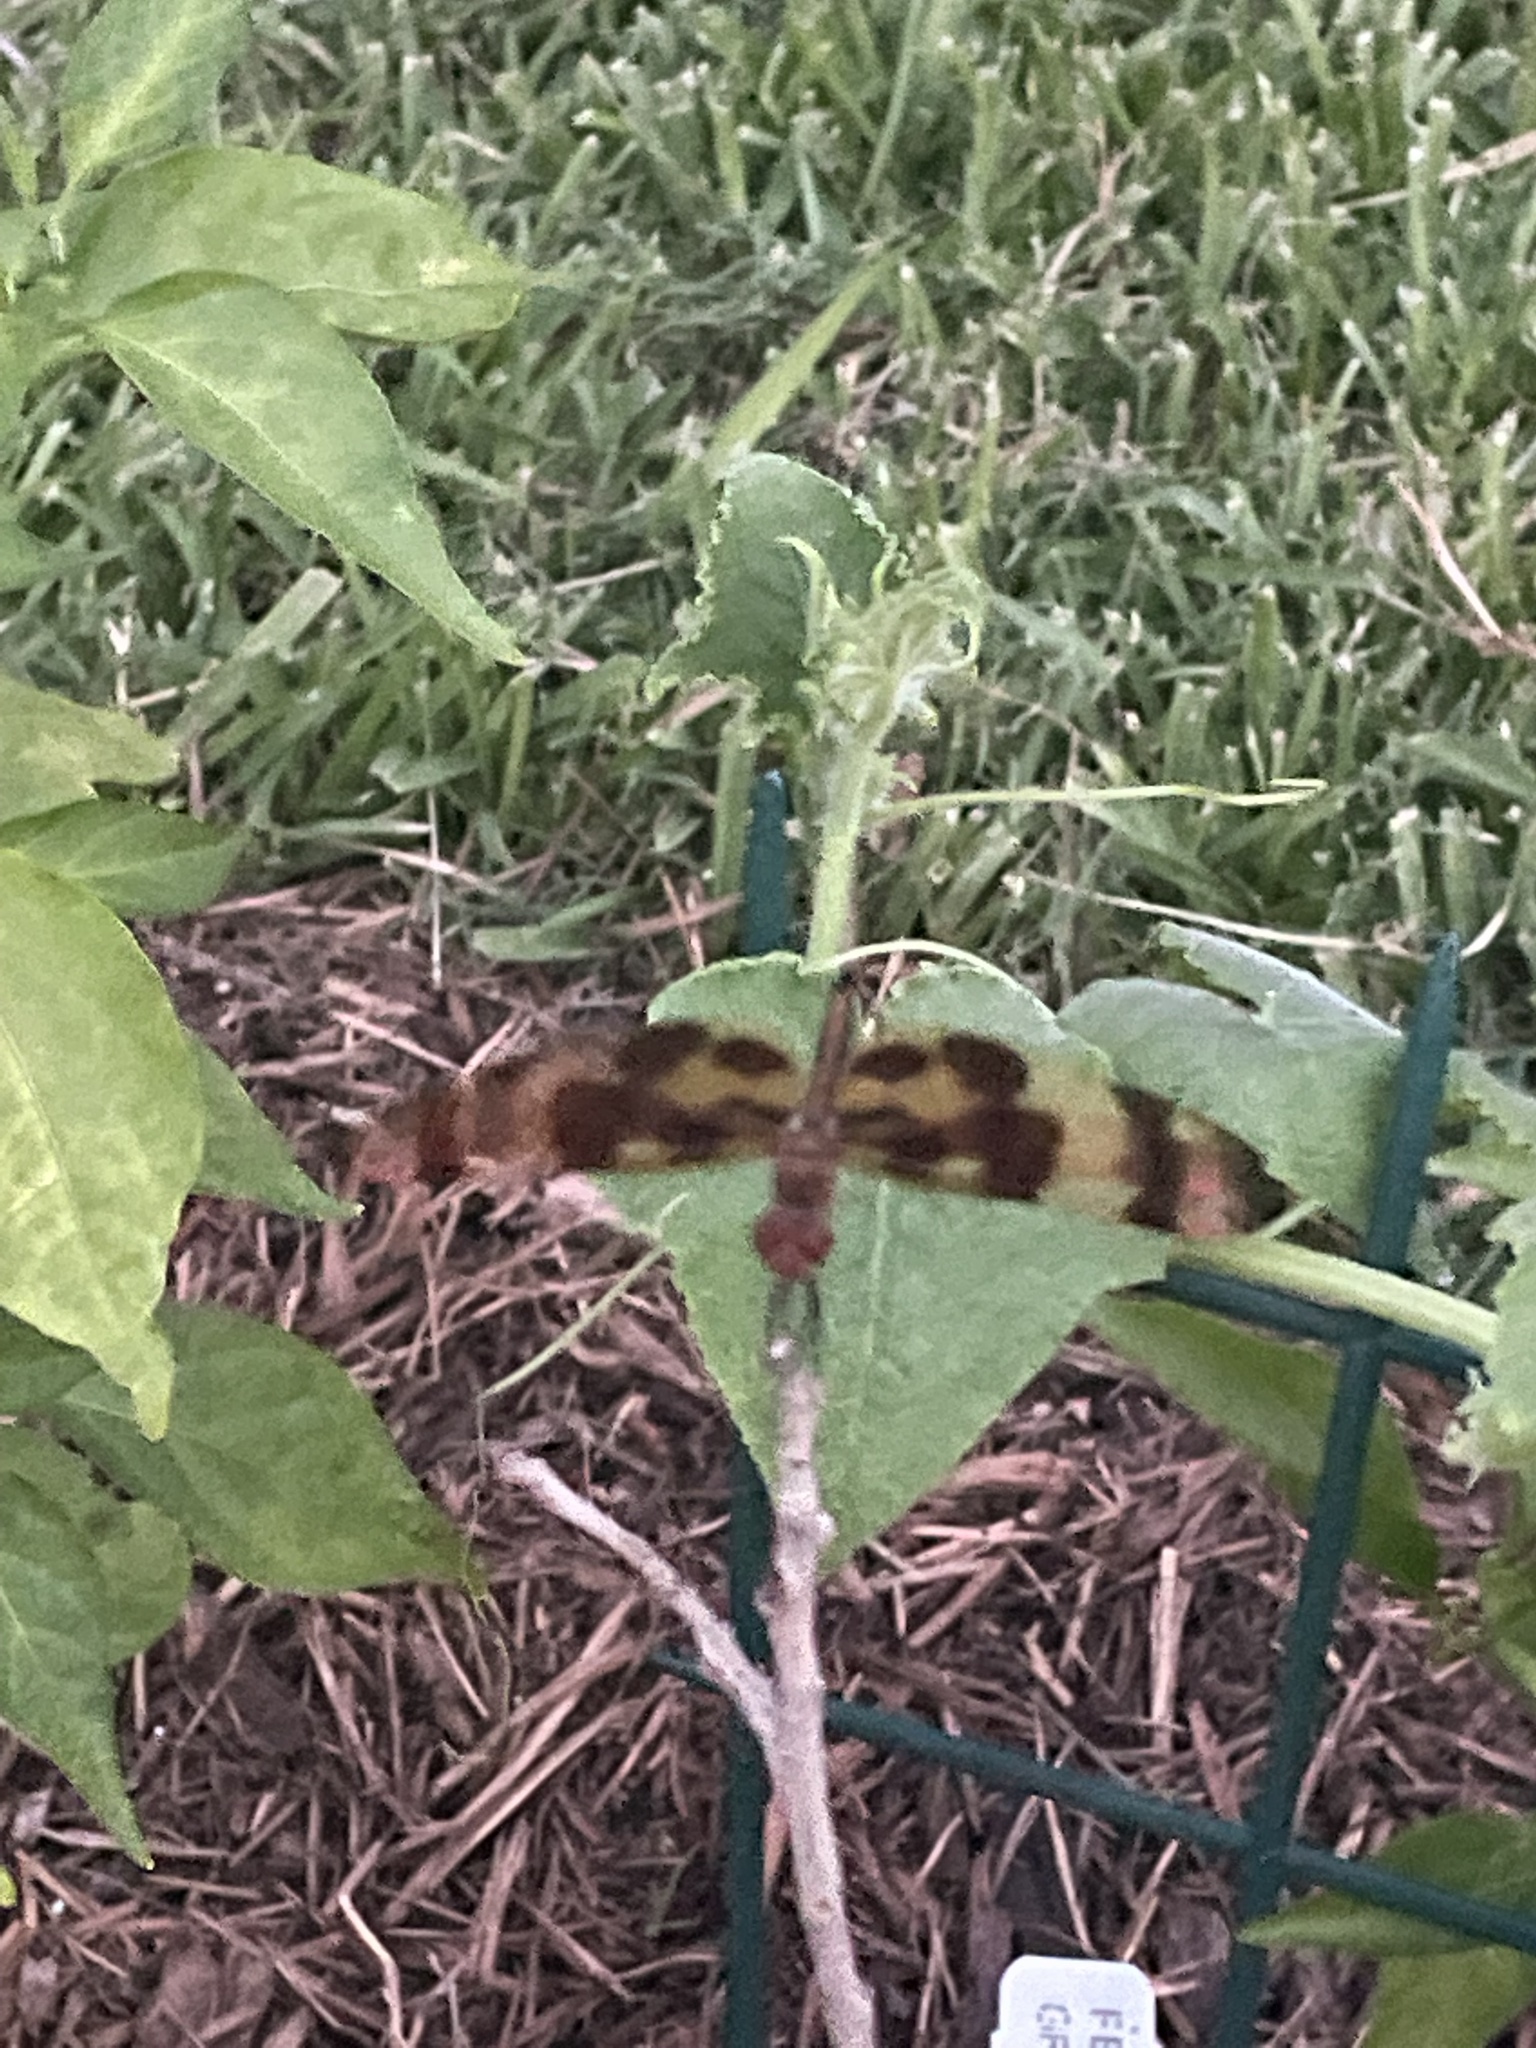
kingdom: Animalia
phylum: Arthropoda
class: Insecta
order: Odonata
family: Libellulidae
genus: Celithemis
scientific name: Celithemis eponina
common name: Halloween pennant
